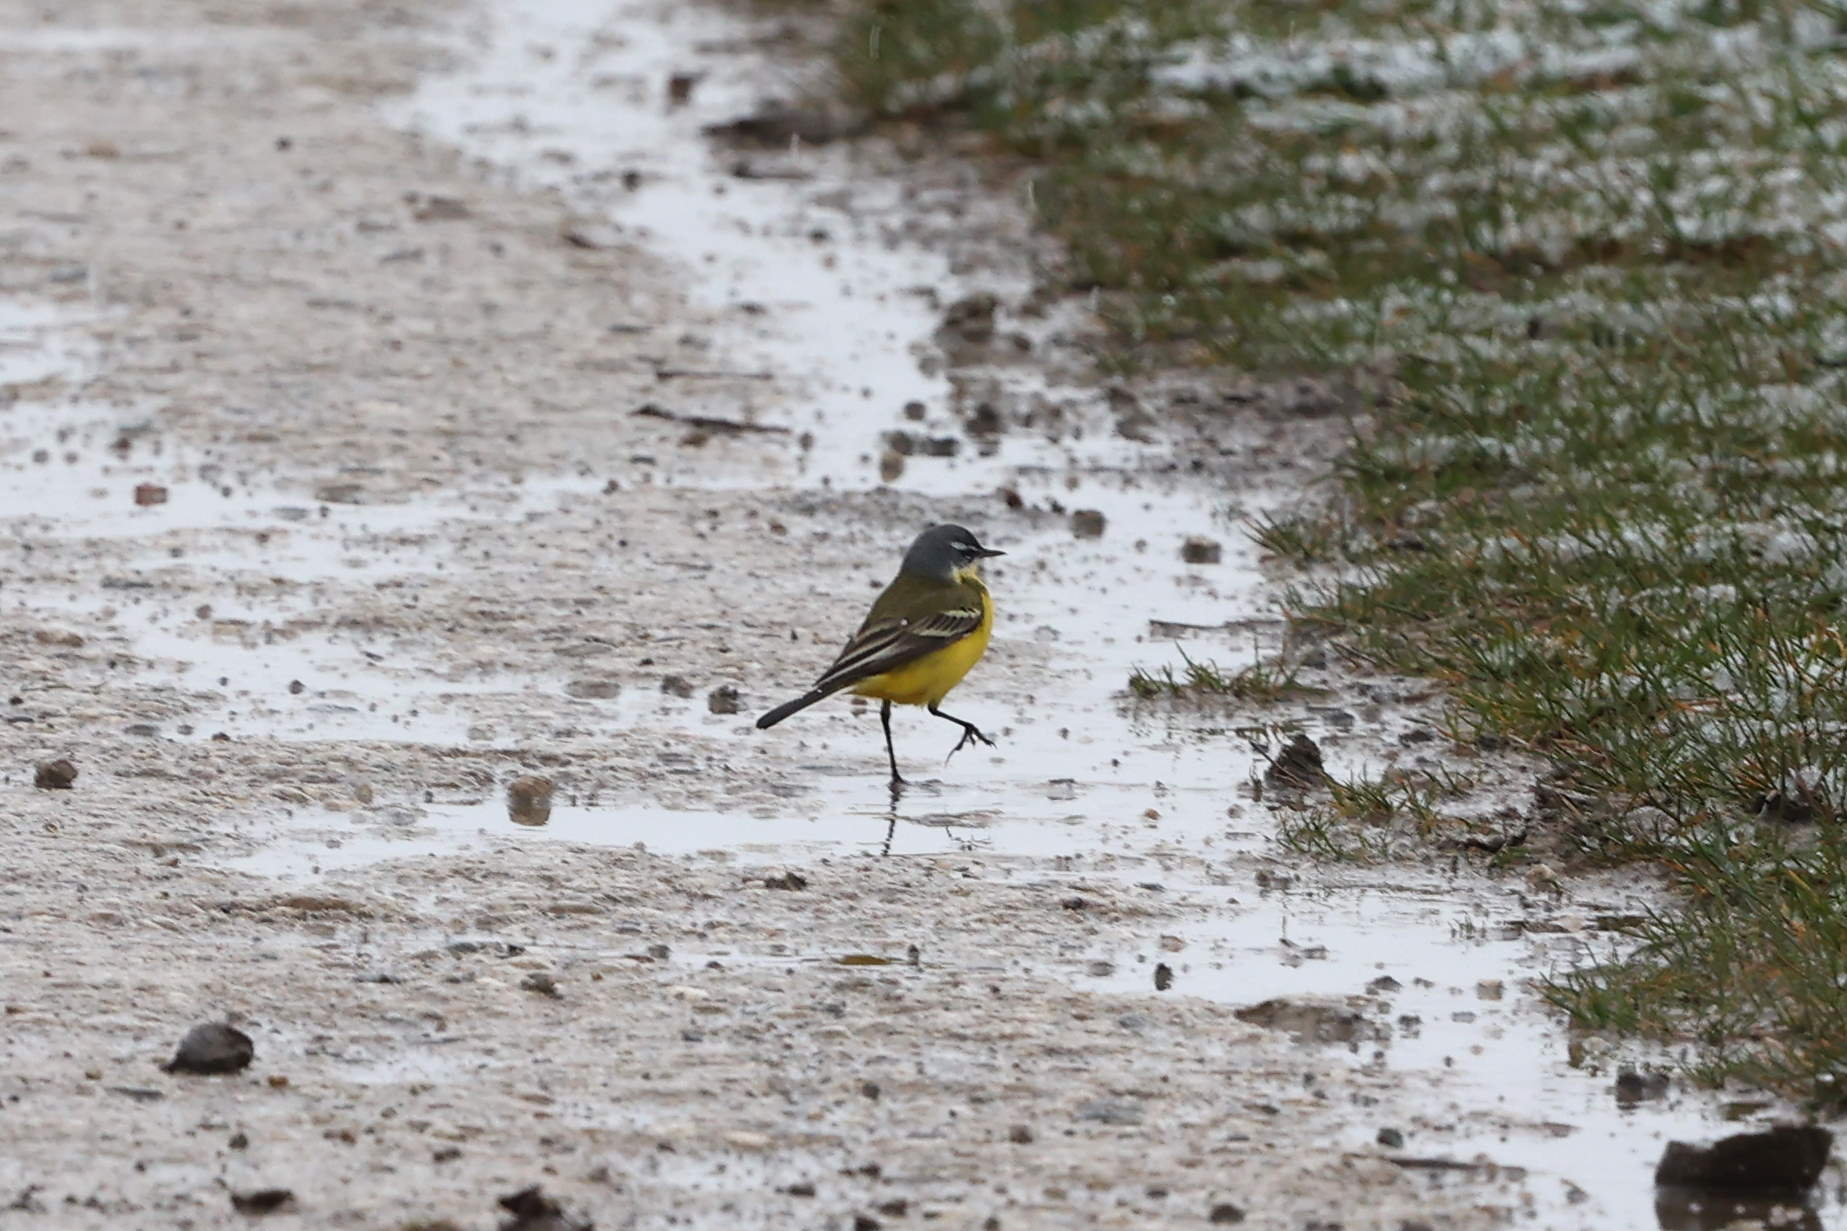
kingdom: Animalia
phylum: Chordata
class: Aves
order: Passeriformes
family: Motacillidae
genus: Motacilla
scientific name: Motacilla flava
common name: Western yellow wagtail
